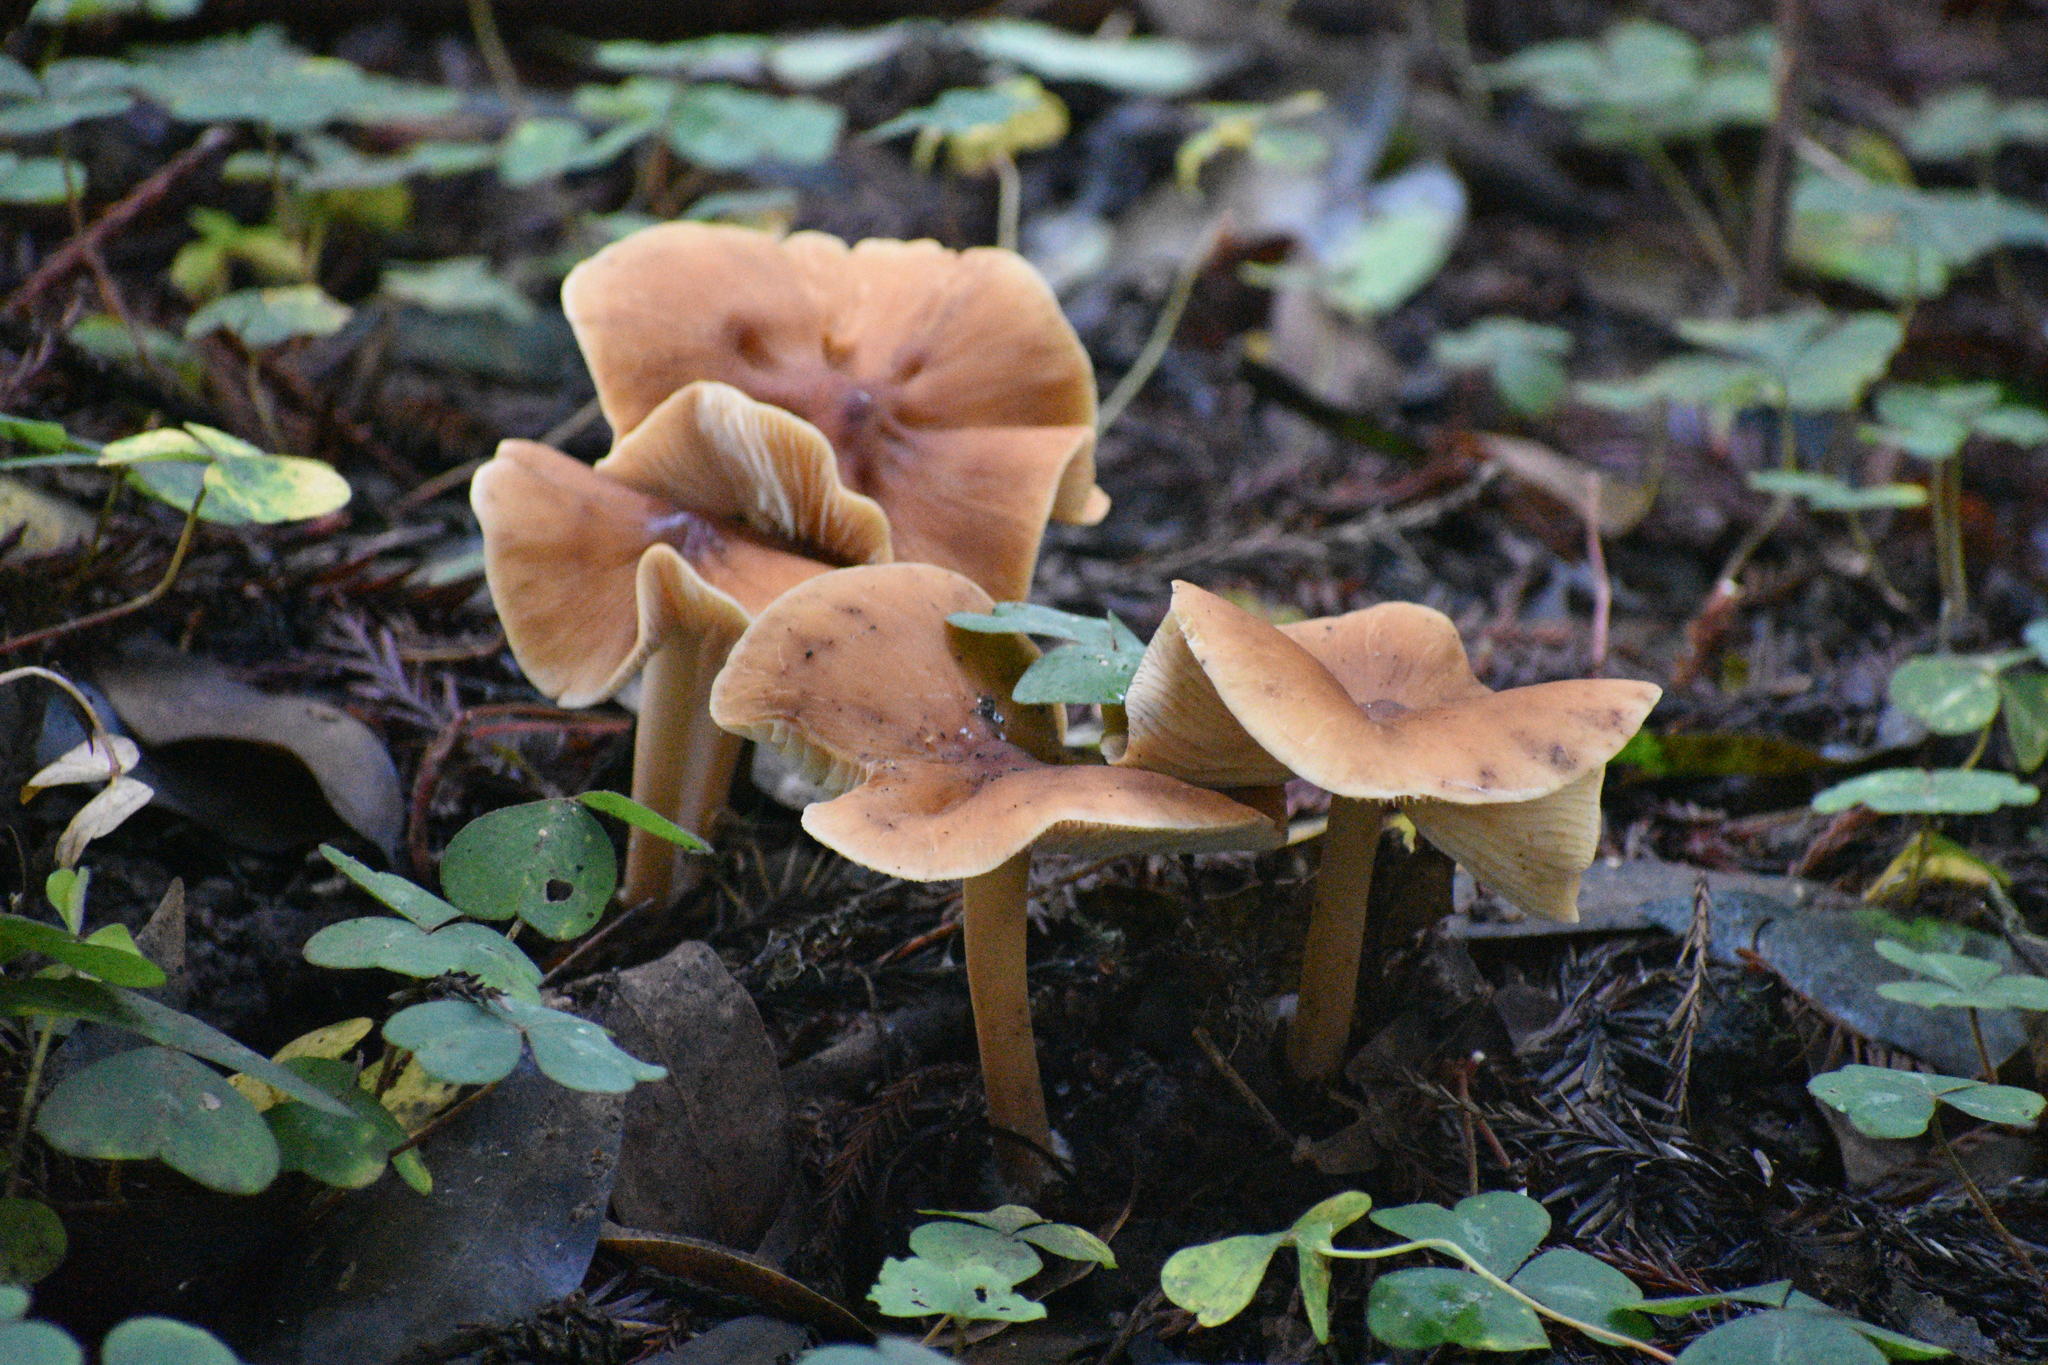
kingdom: Fungi
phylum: Basidiomycota
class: Agaricomycetes
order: Agaricales
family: Tricholomataceae
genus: Caulorhiza
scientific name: Caulorhiza umbonata
